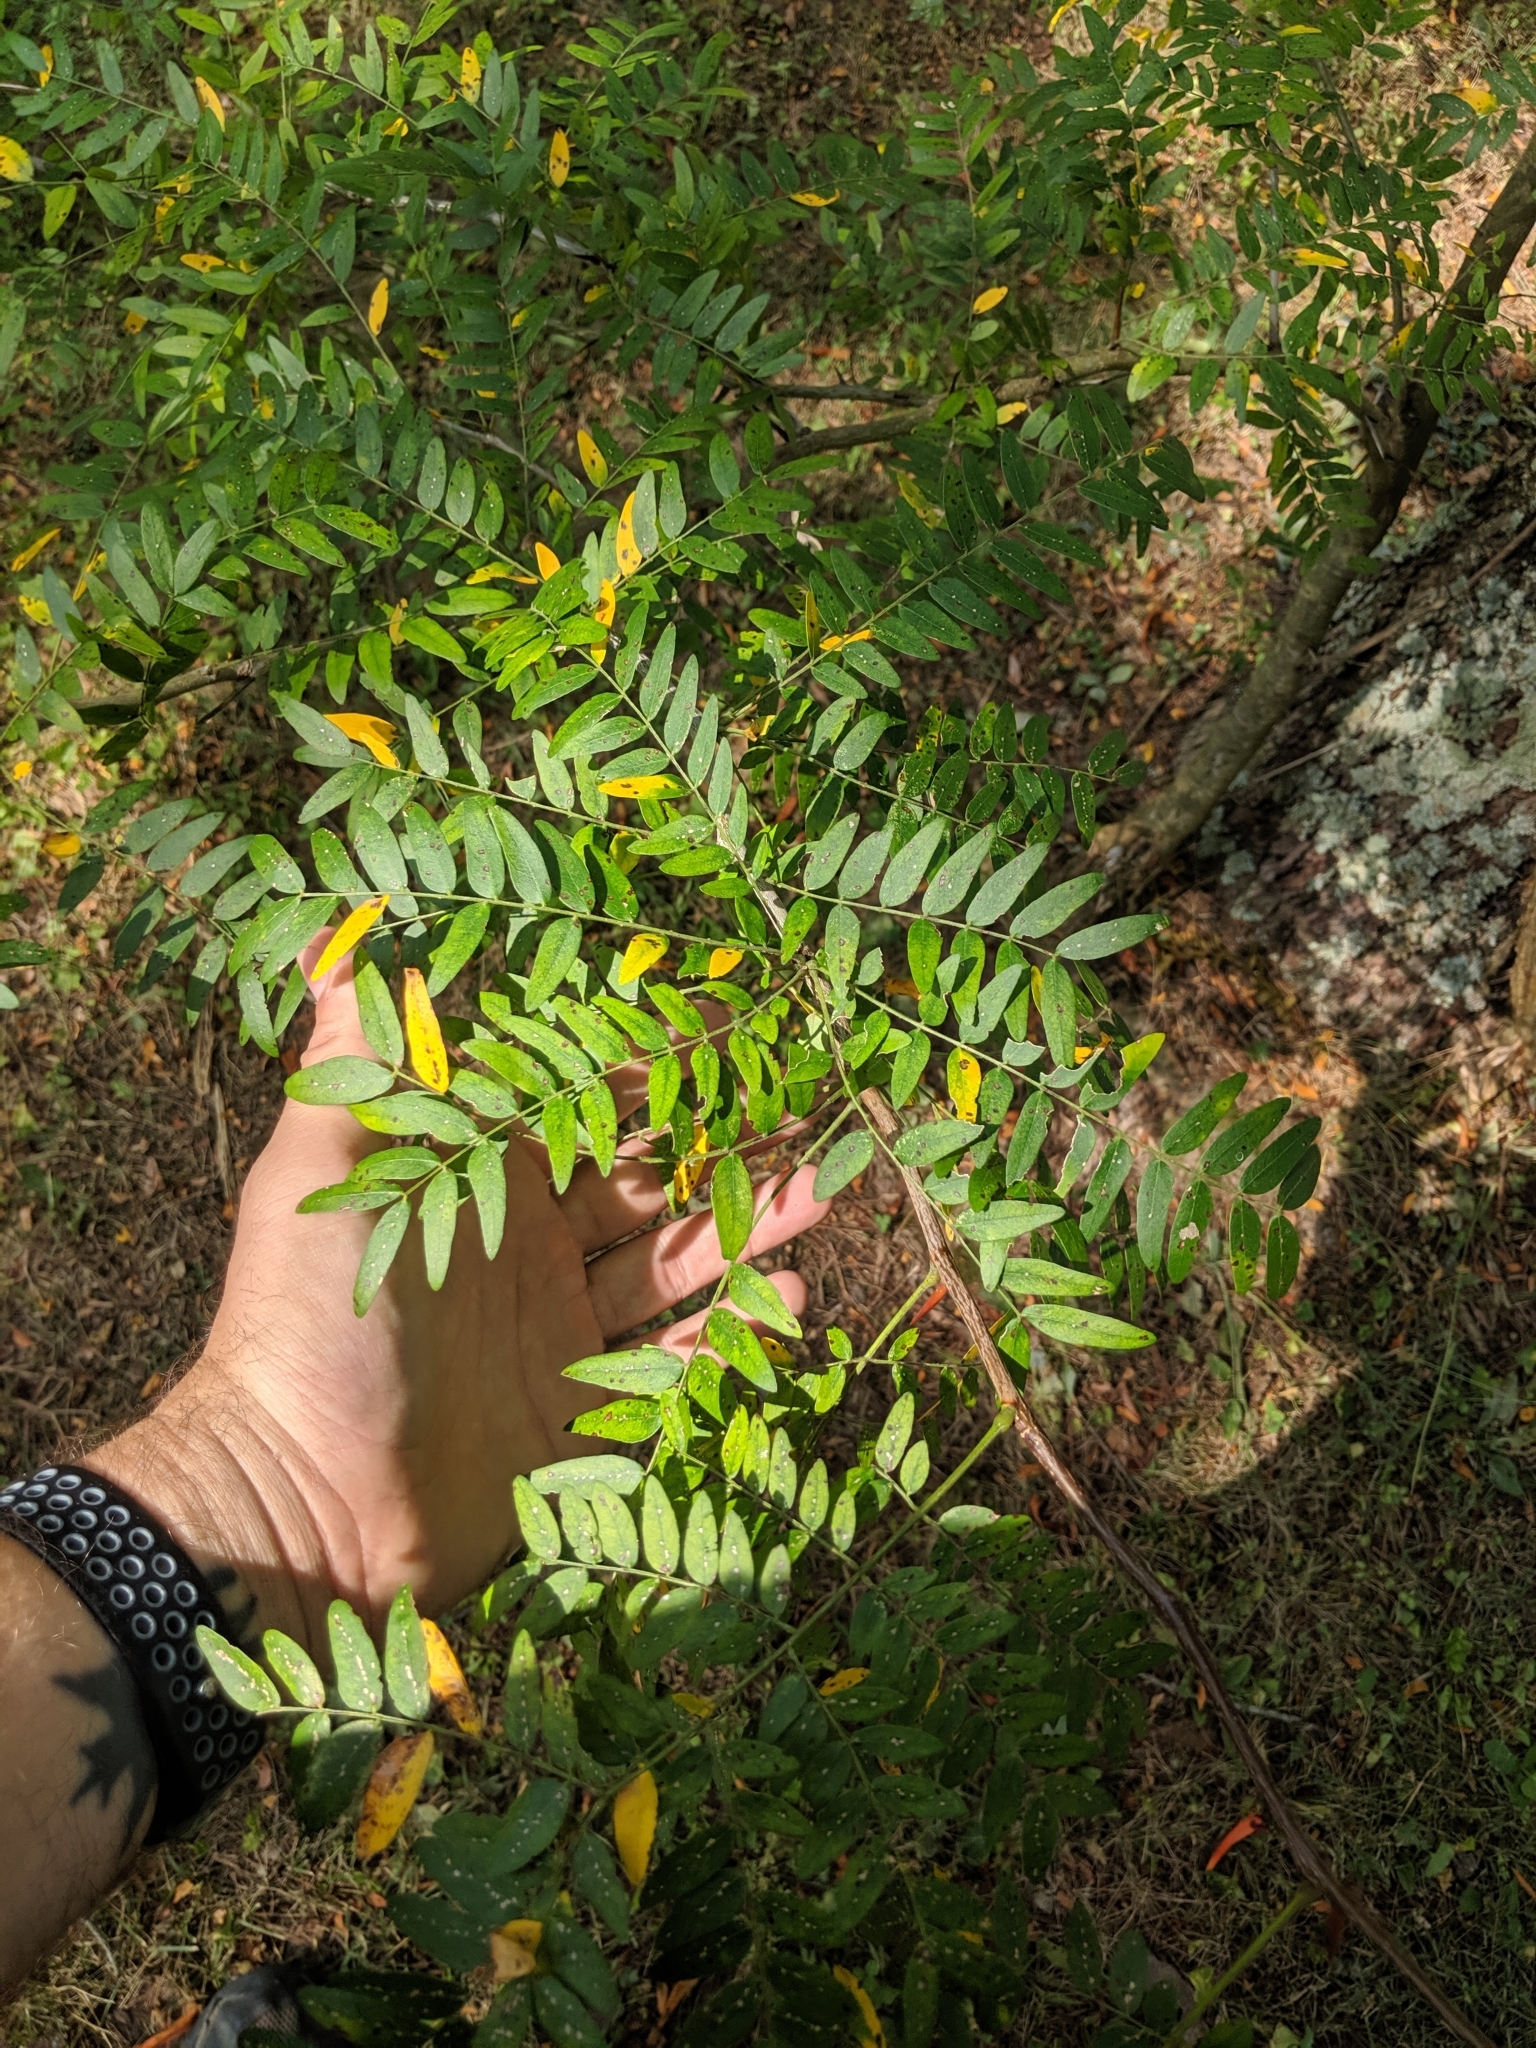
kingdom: Plantae
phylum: Tracheophyta
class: Magnoliopsida
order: Fabales
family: Fabaceae
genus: Gleditsia
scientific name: Gleditsia triacanthos
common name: Common honeylocust
